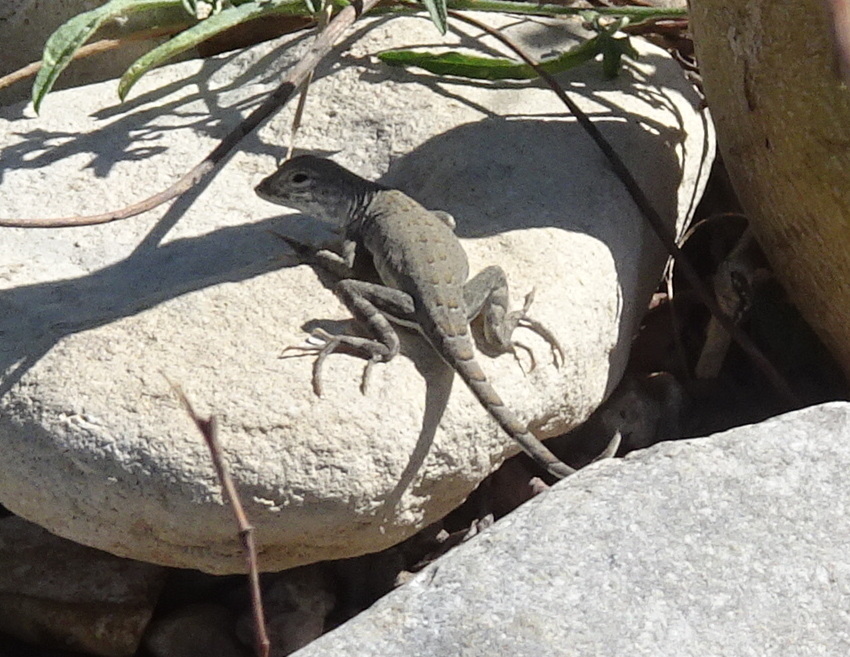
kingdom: Animalia
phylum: Chordata
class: Squamata
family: Phrynosomatidae
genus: Cophosaurus
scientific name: Cophosaurus texanus
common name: Greater earless lizard
